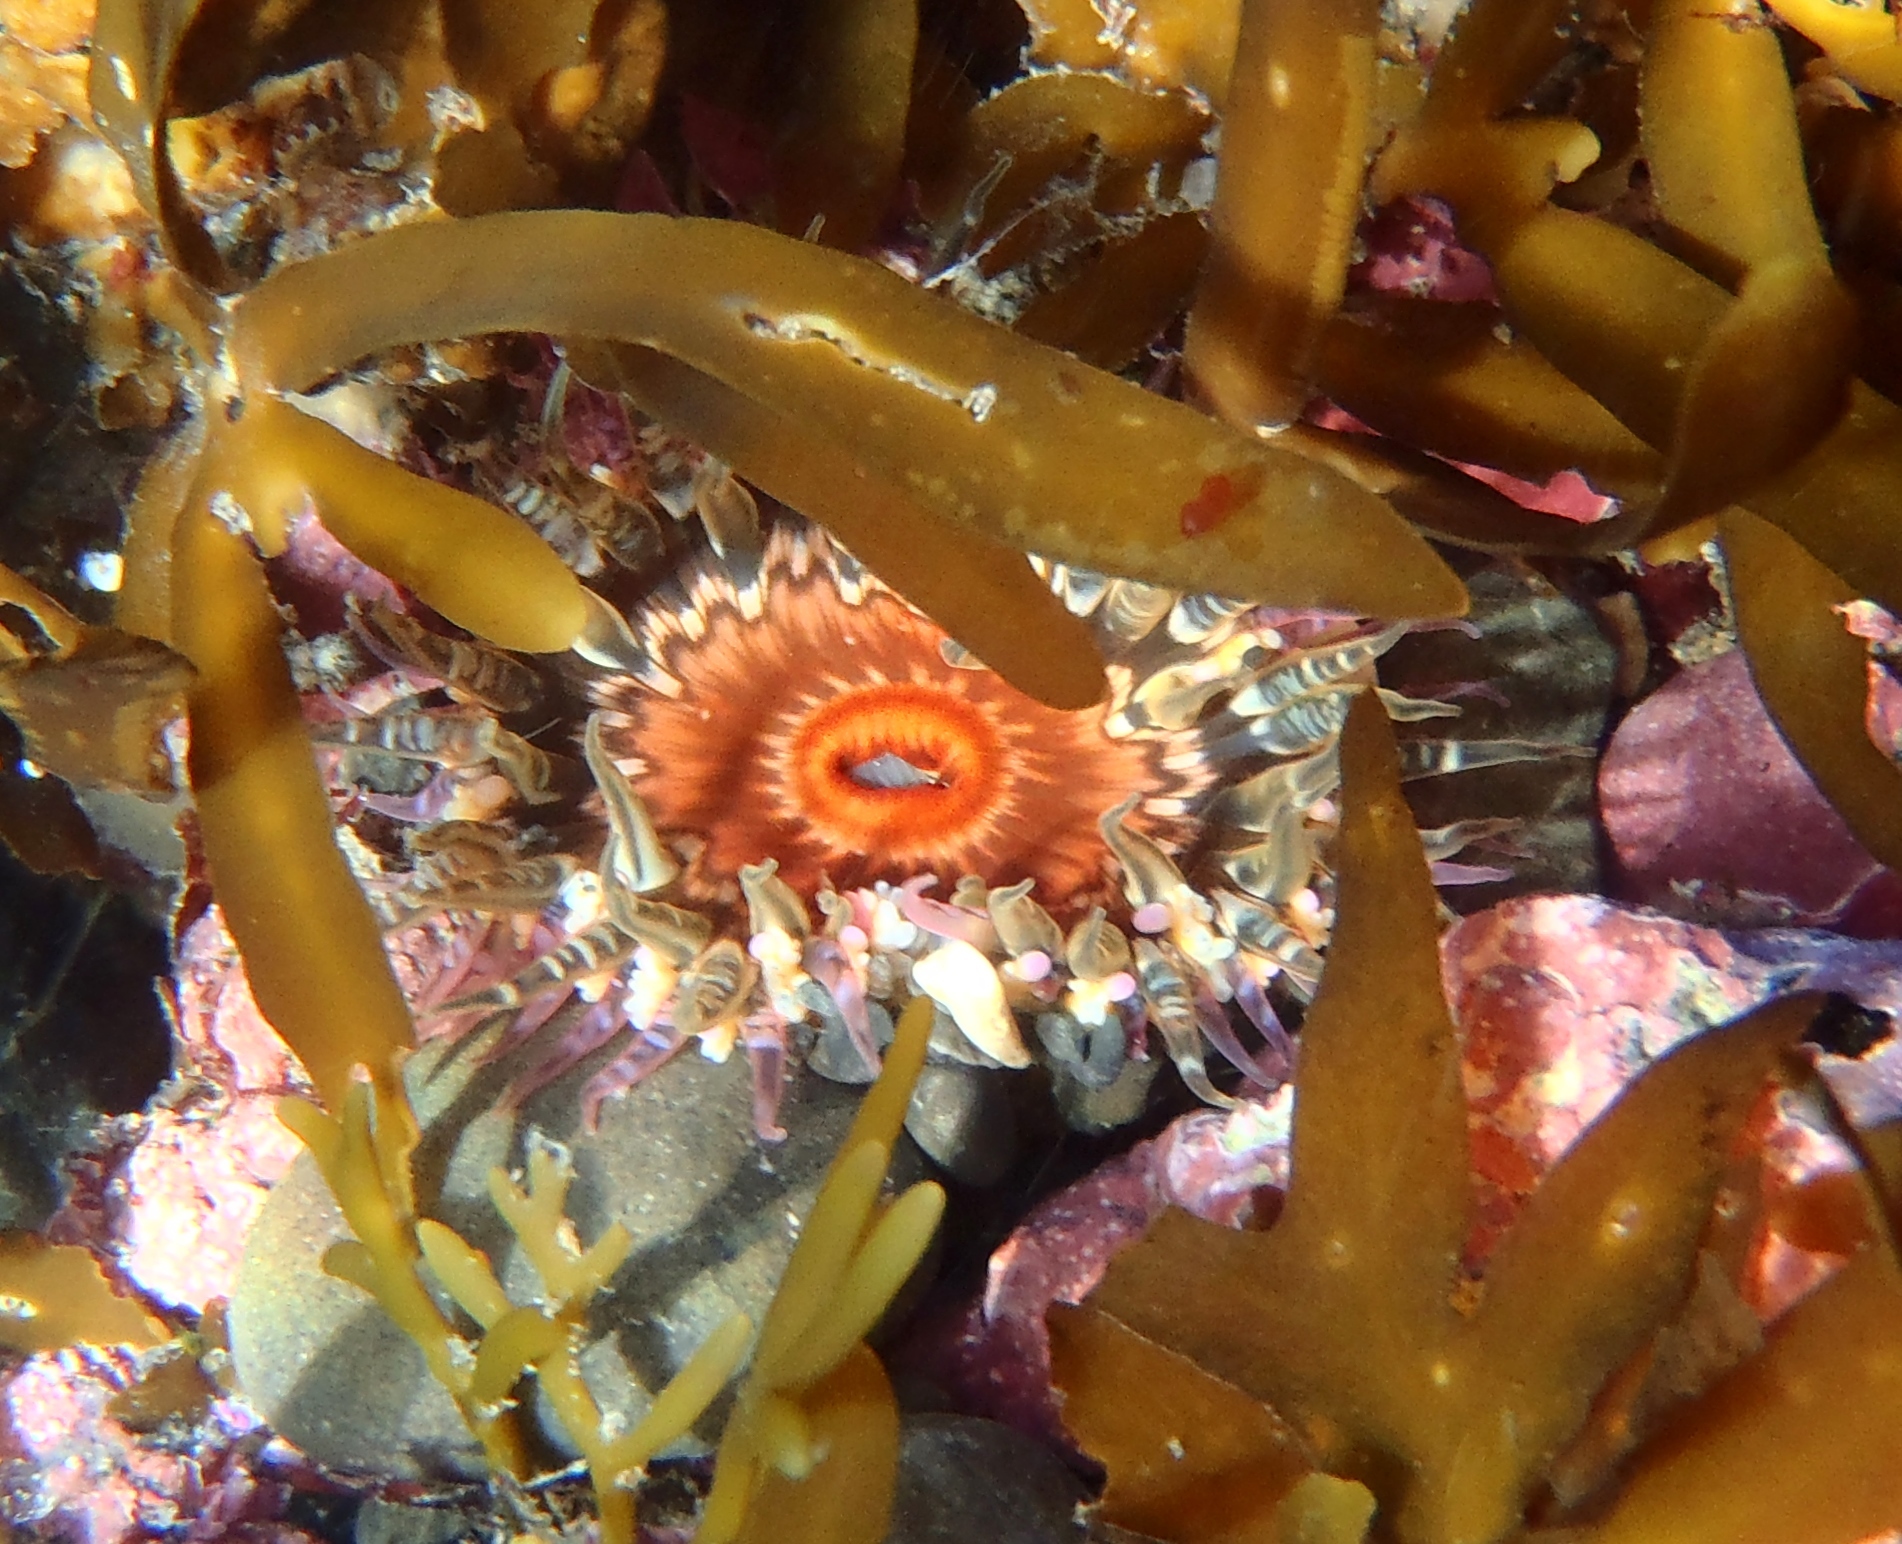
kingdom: Animalia
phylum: Cnidaria
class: Anthozoa
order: Actiniaria
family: Actiniidae
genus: Oulactis
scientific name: Oulactis muscosa
